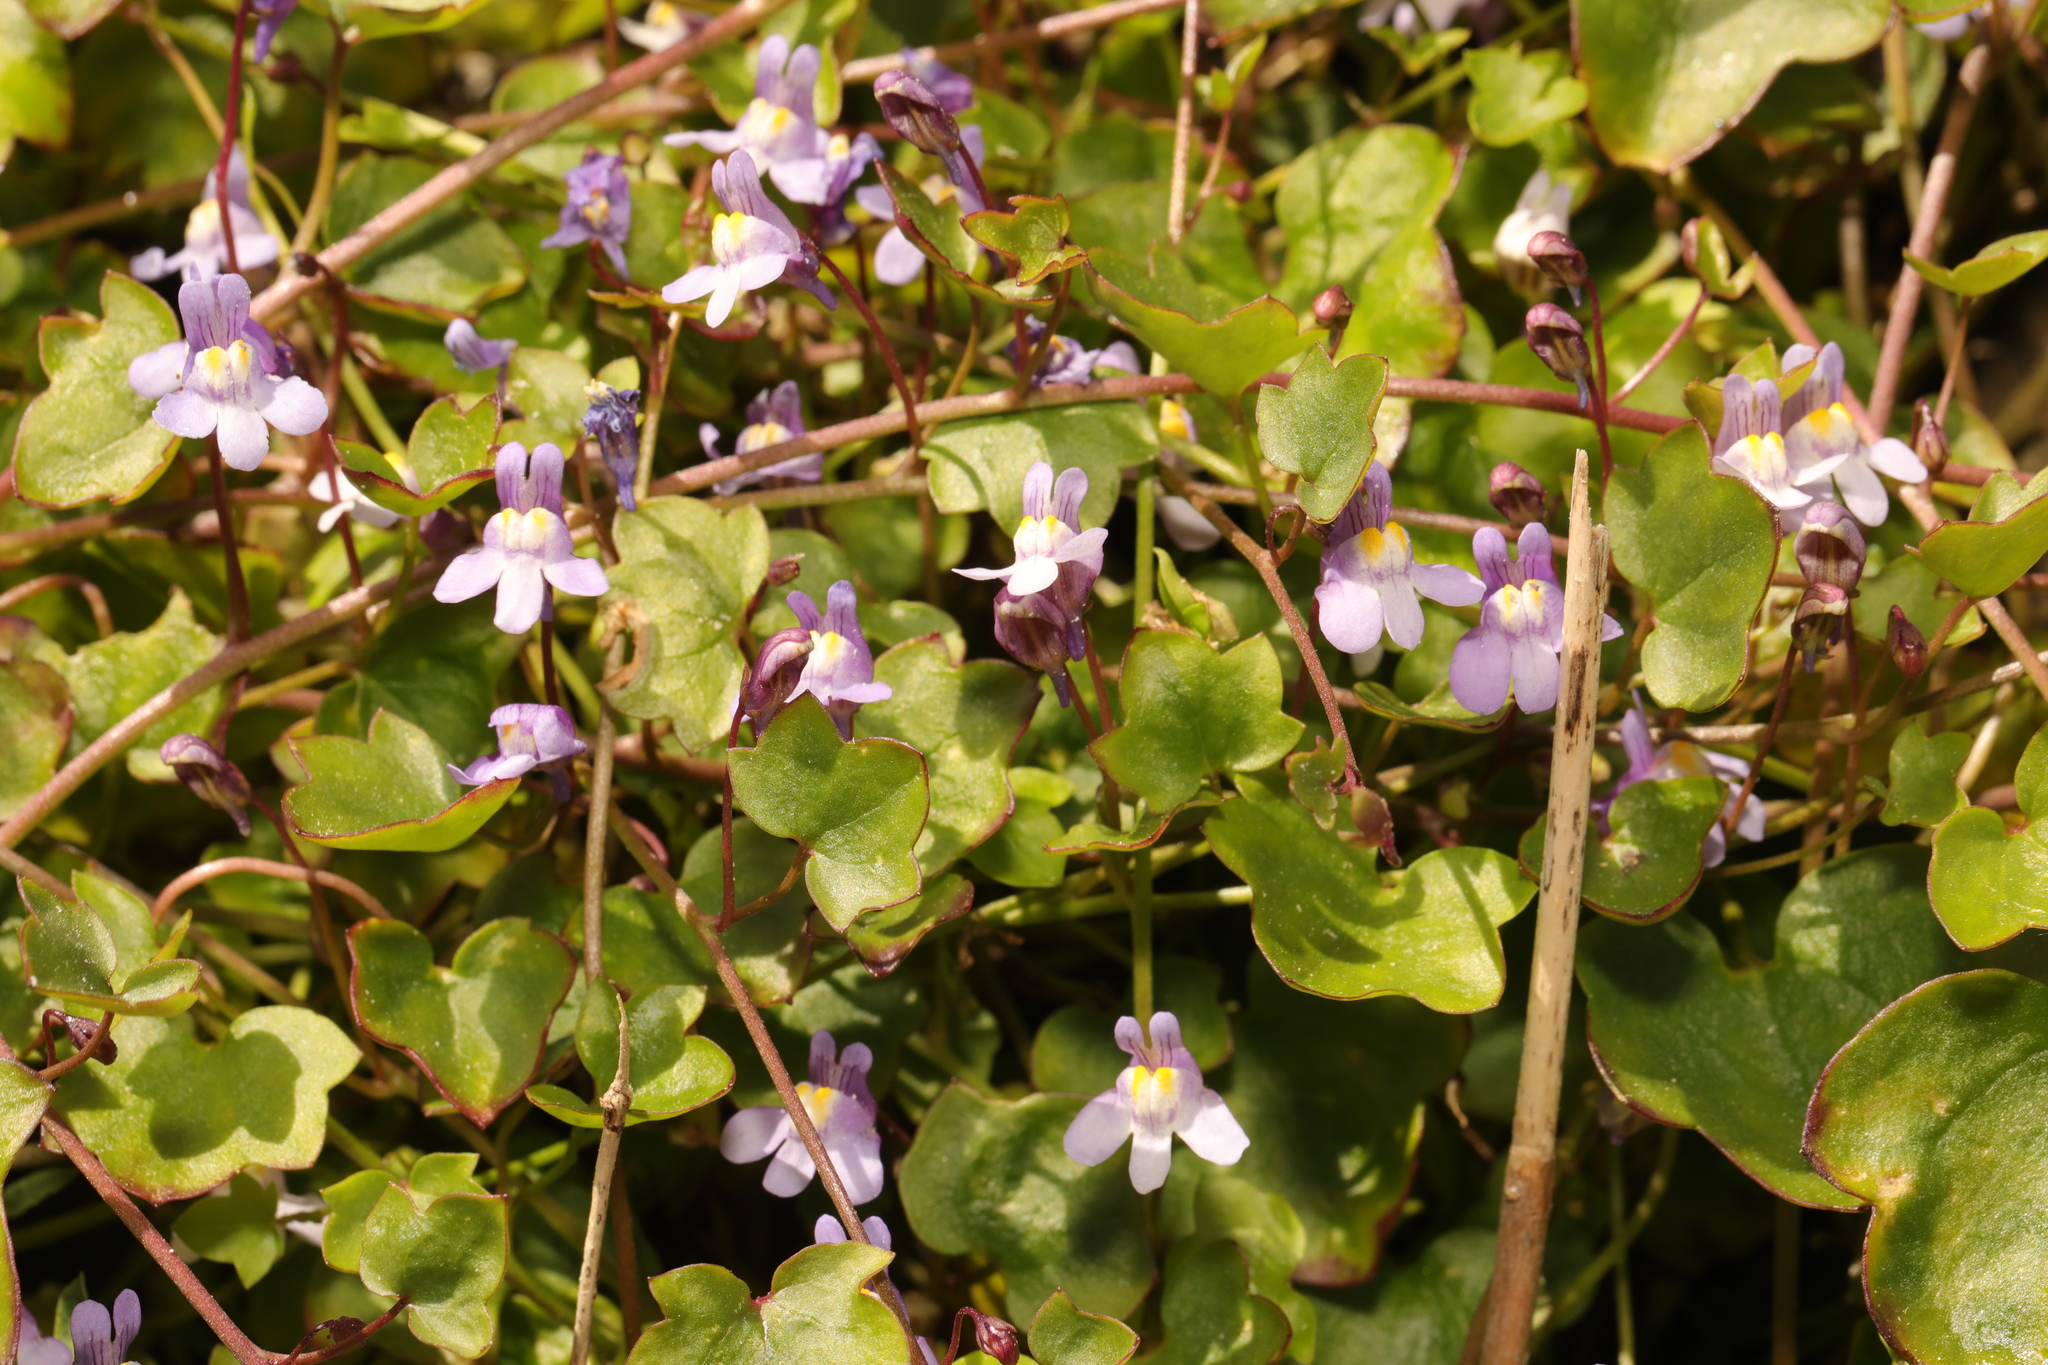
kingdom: Plantae
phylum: Tracheophyta
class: Magnoliopsida
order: Lamiales
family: Plantaginaceae
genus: Cymbalaria
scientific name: Cymbalaria muralis
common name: Ivy-leaved toadflax
